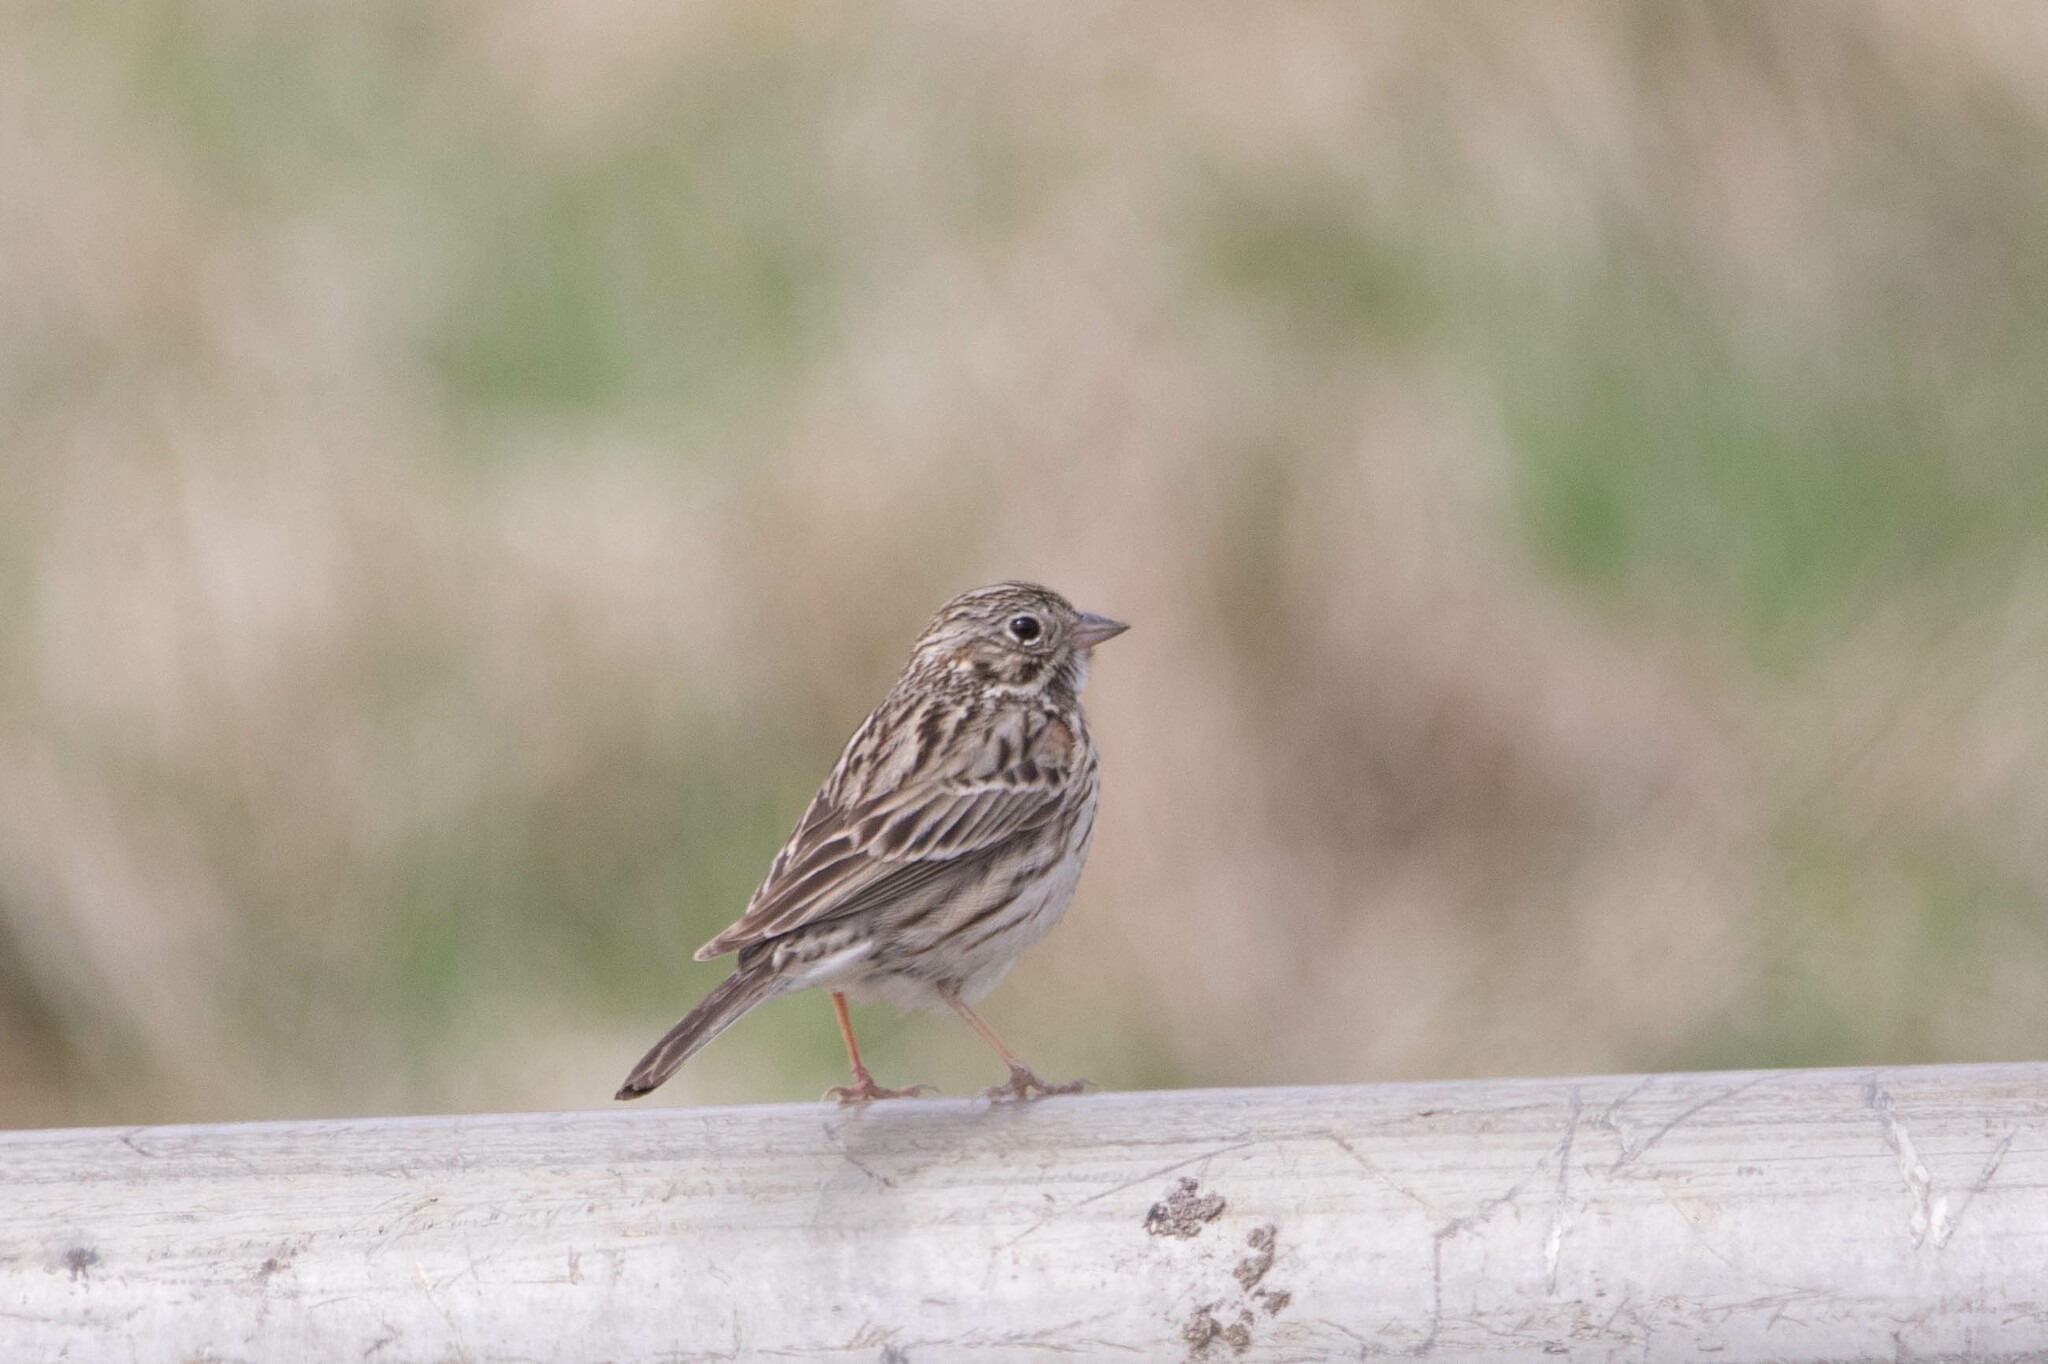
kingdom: Animalia
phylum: Chordata
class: Aves
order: Passeriformes
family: Passerellidae
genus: Pooecetes
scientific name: Pooecetes gramineus
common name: Vesper sparrow
